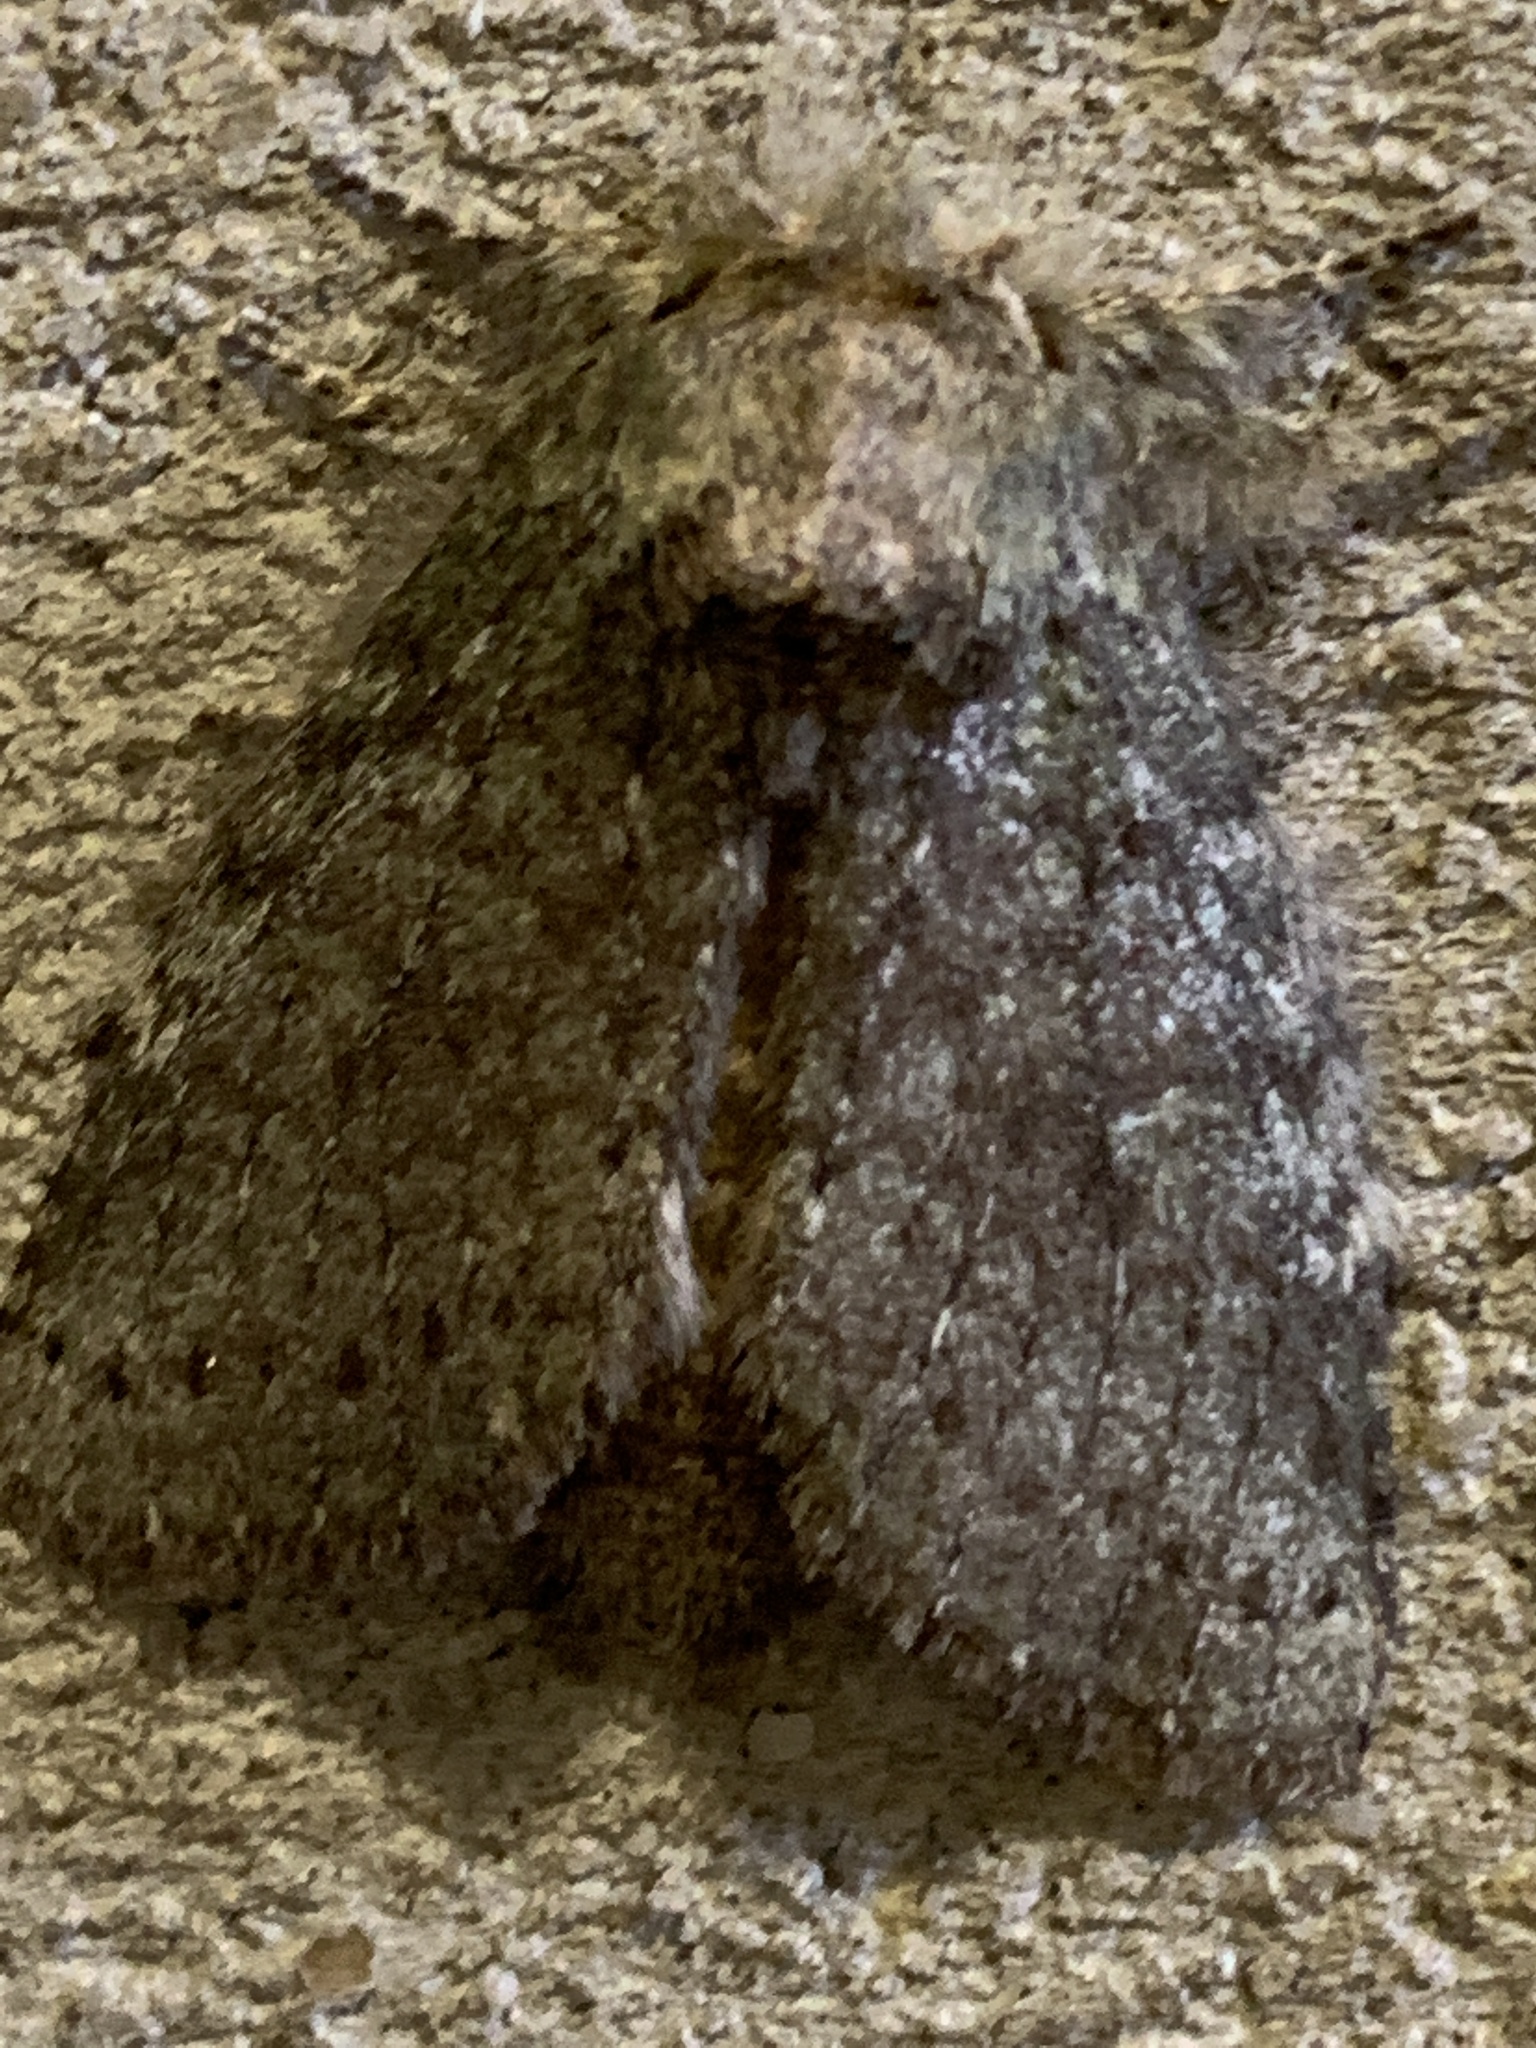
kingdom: Animalia
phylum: Arthropoda
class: Insecta
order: Lepidoptera
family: Notodontidae
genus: Disphragis
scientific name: Disphragis Cecrita guttivitta
